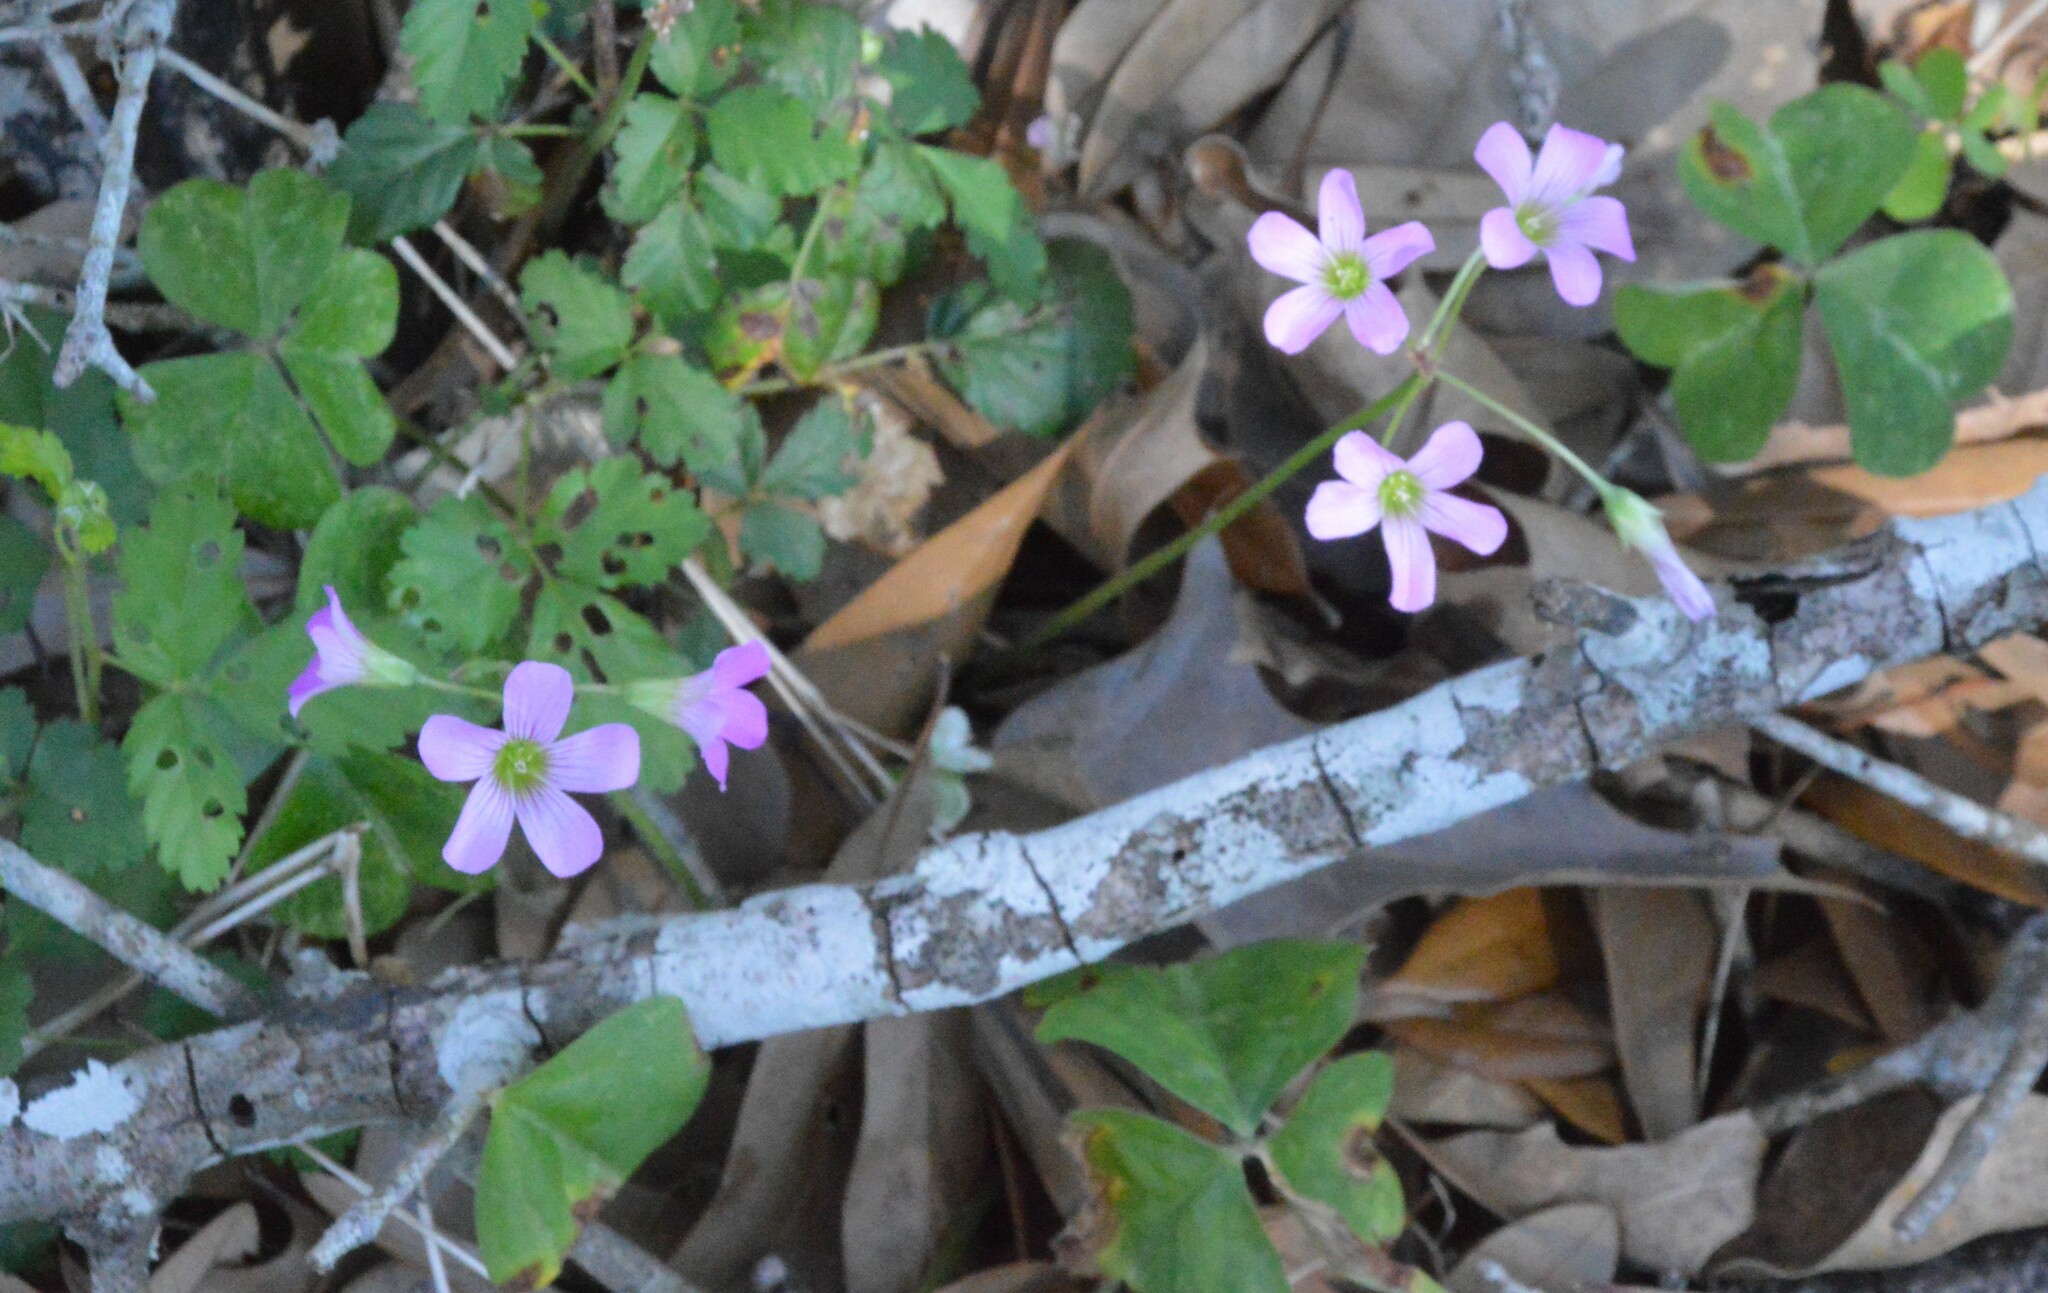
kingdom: Plantae
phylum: Tracheophyta
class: Magnoliopsida
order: Oxalidales
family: Oxalidaceae
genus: Oxalis
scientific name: Oxalis debilis
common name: Large-flowered pink-sorrel
